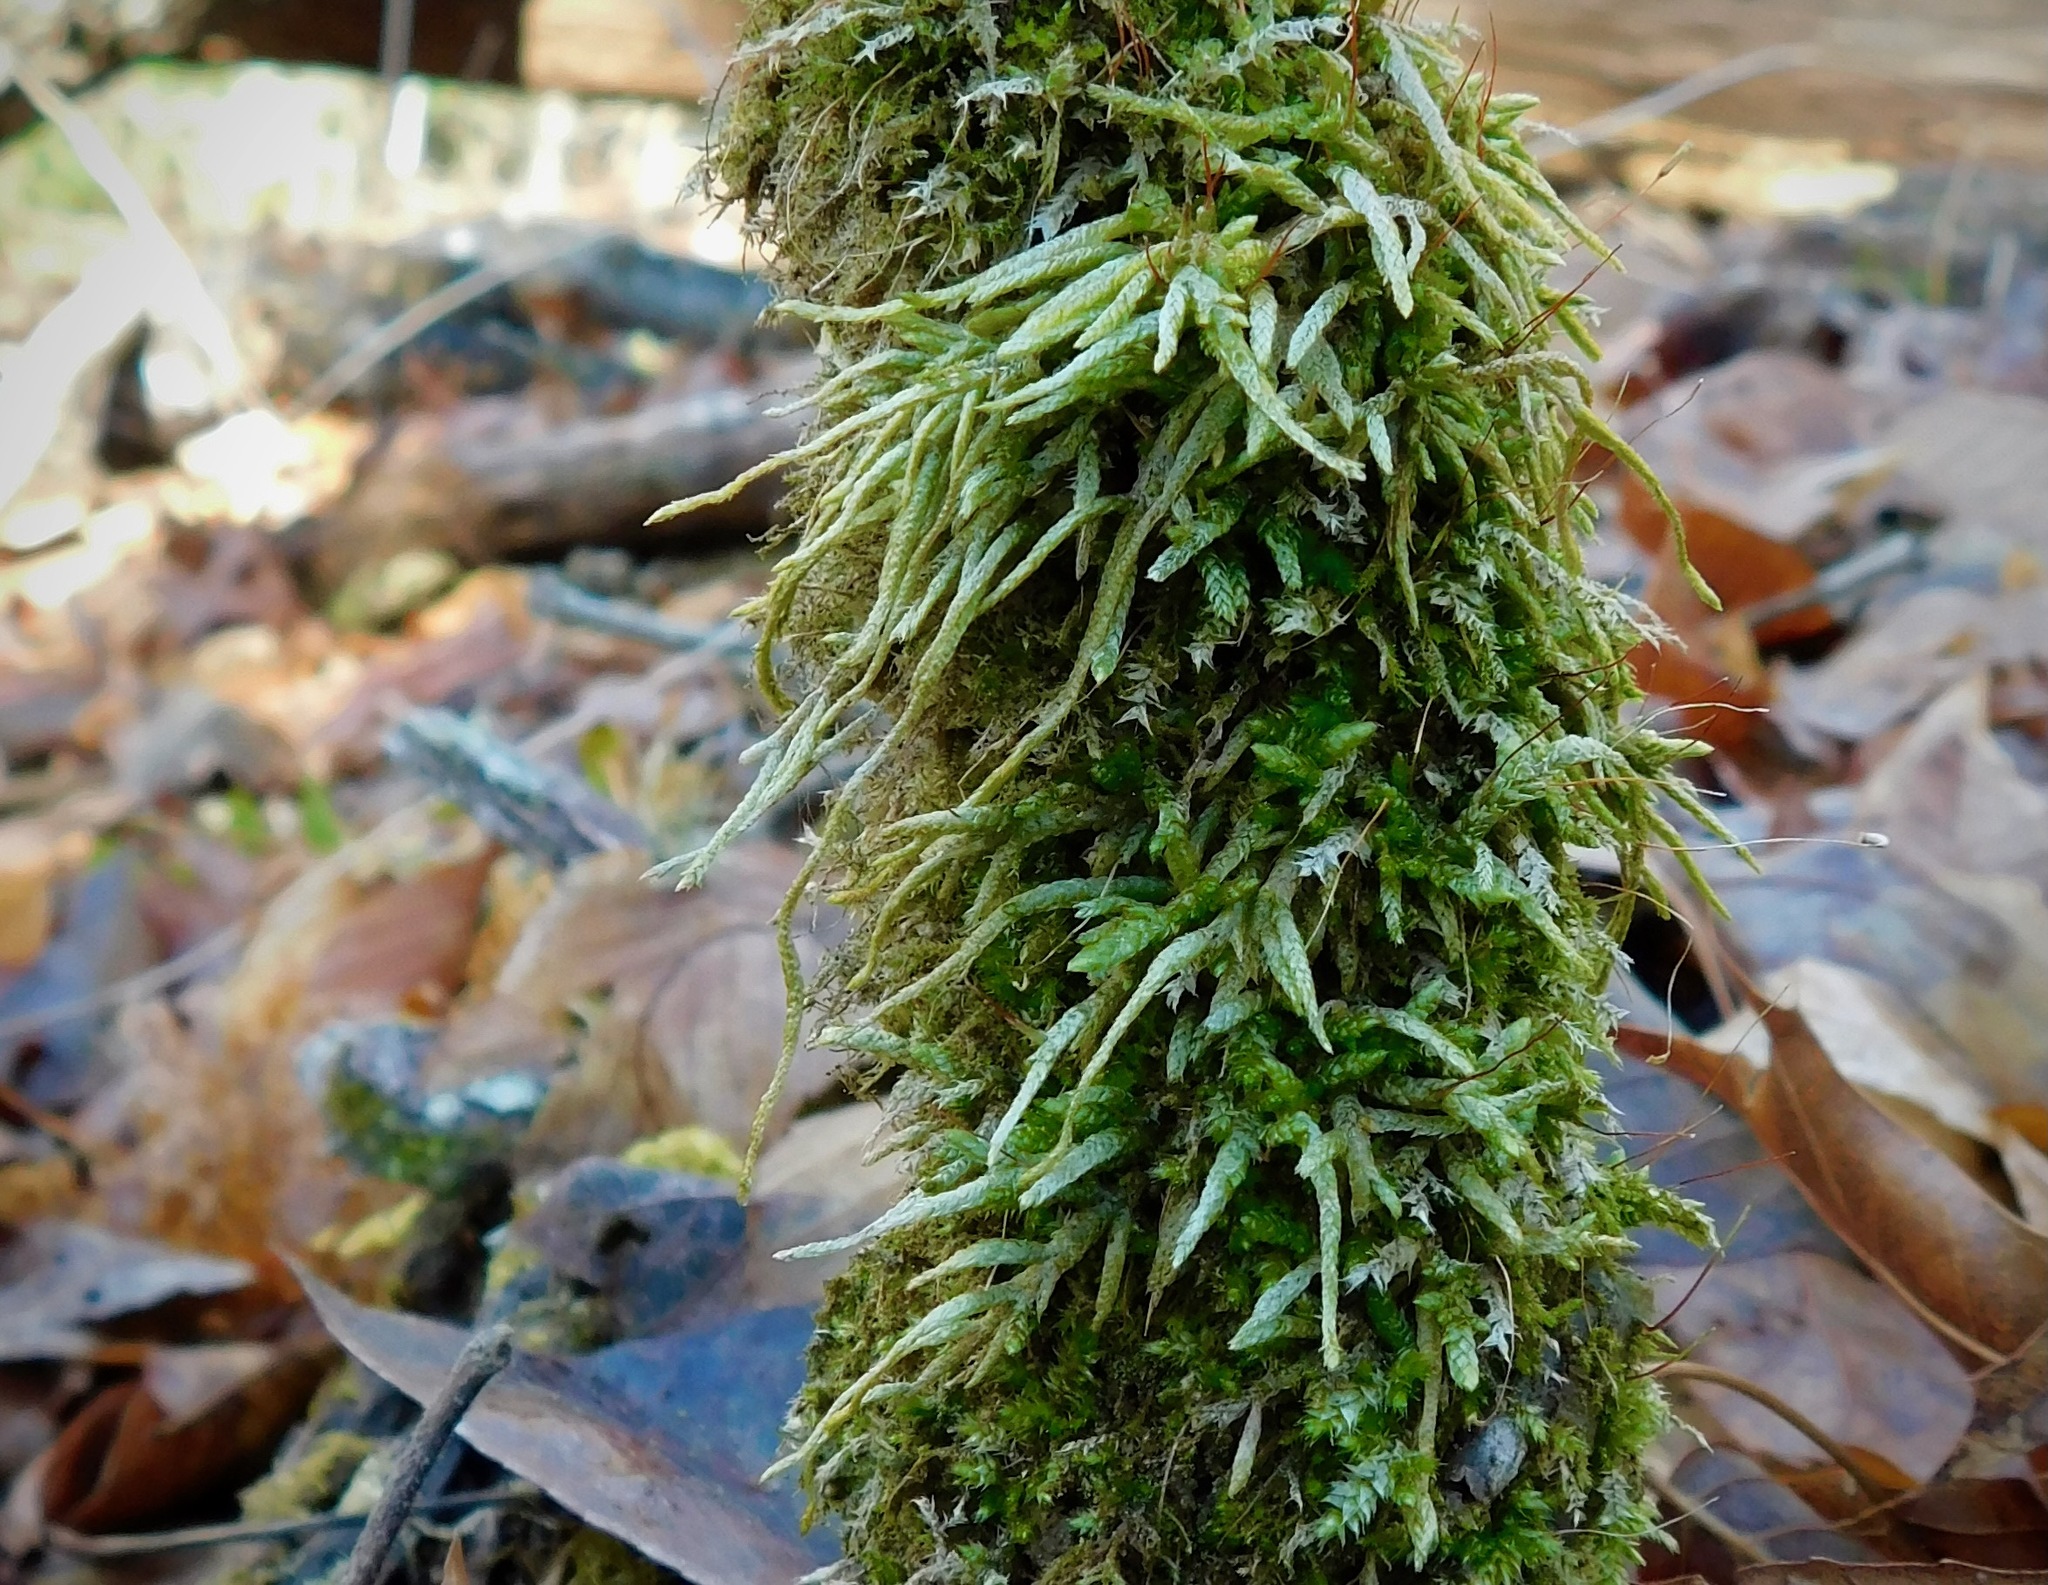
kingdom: Plantae
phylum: Bryophyta
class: Bryopsida
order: Hypnales
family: Entodontaceae
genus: Entodon
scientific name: Entodon seductrix
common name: Round-stemmed entodon moss
